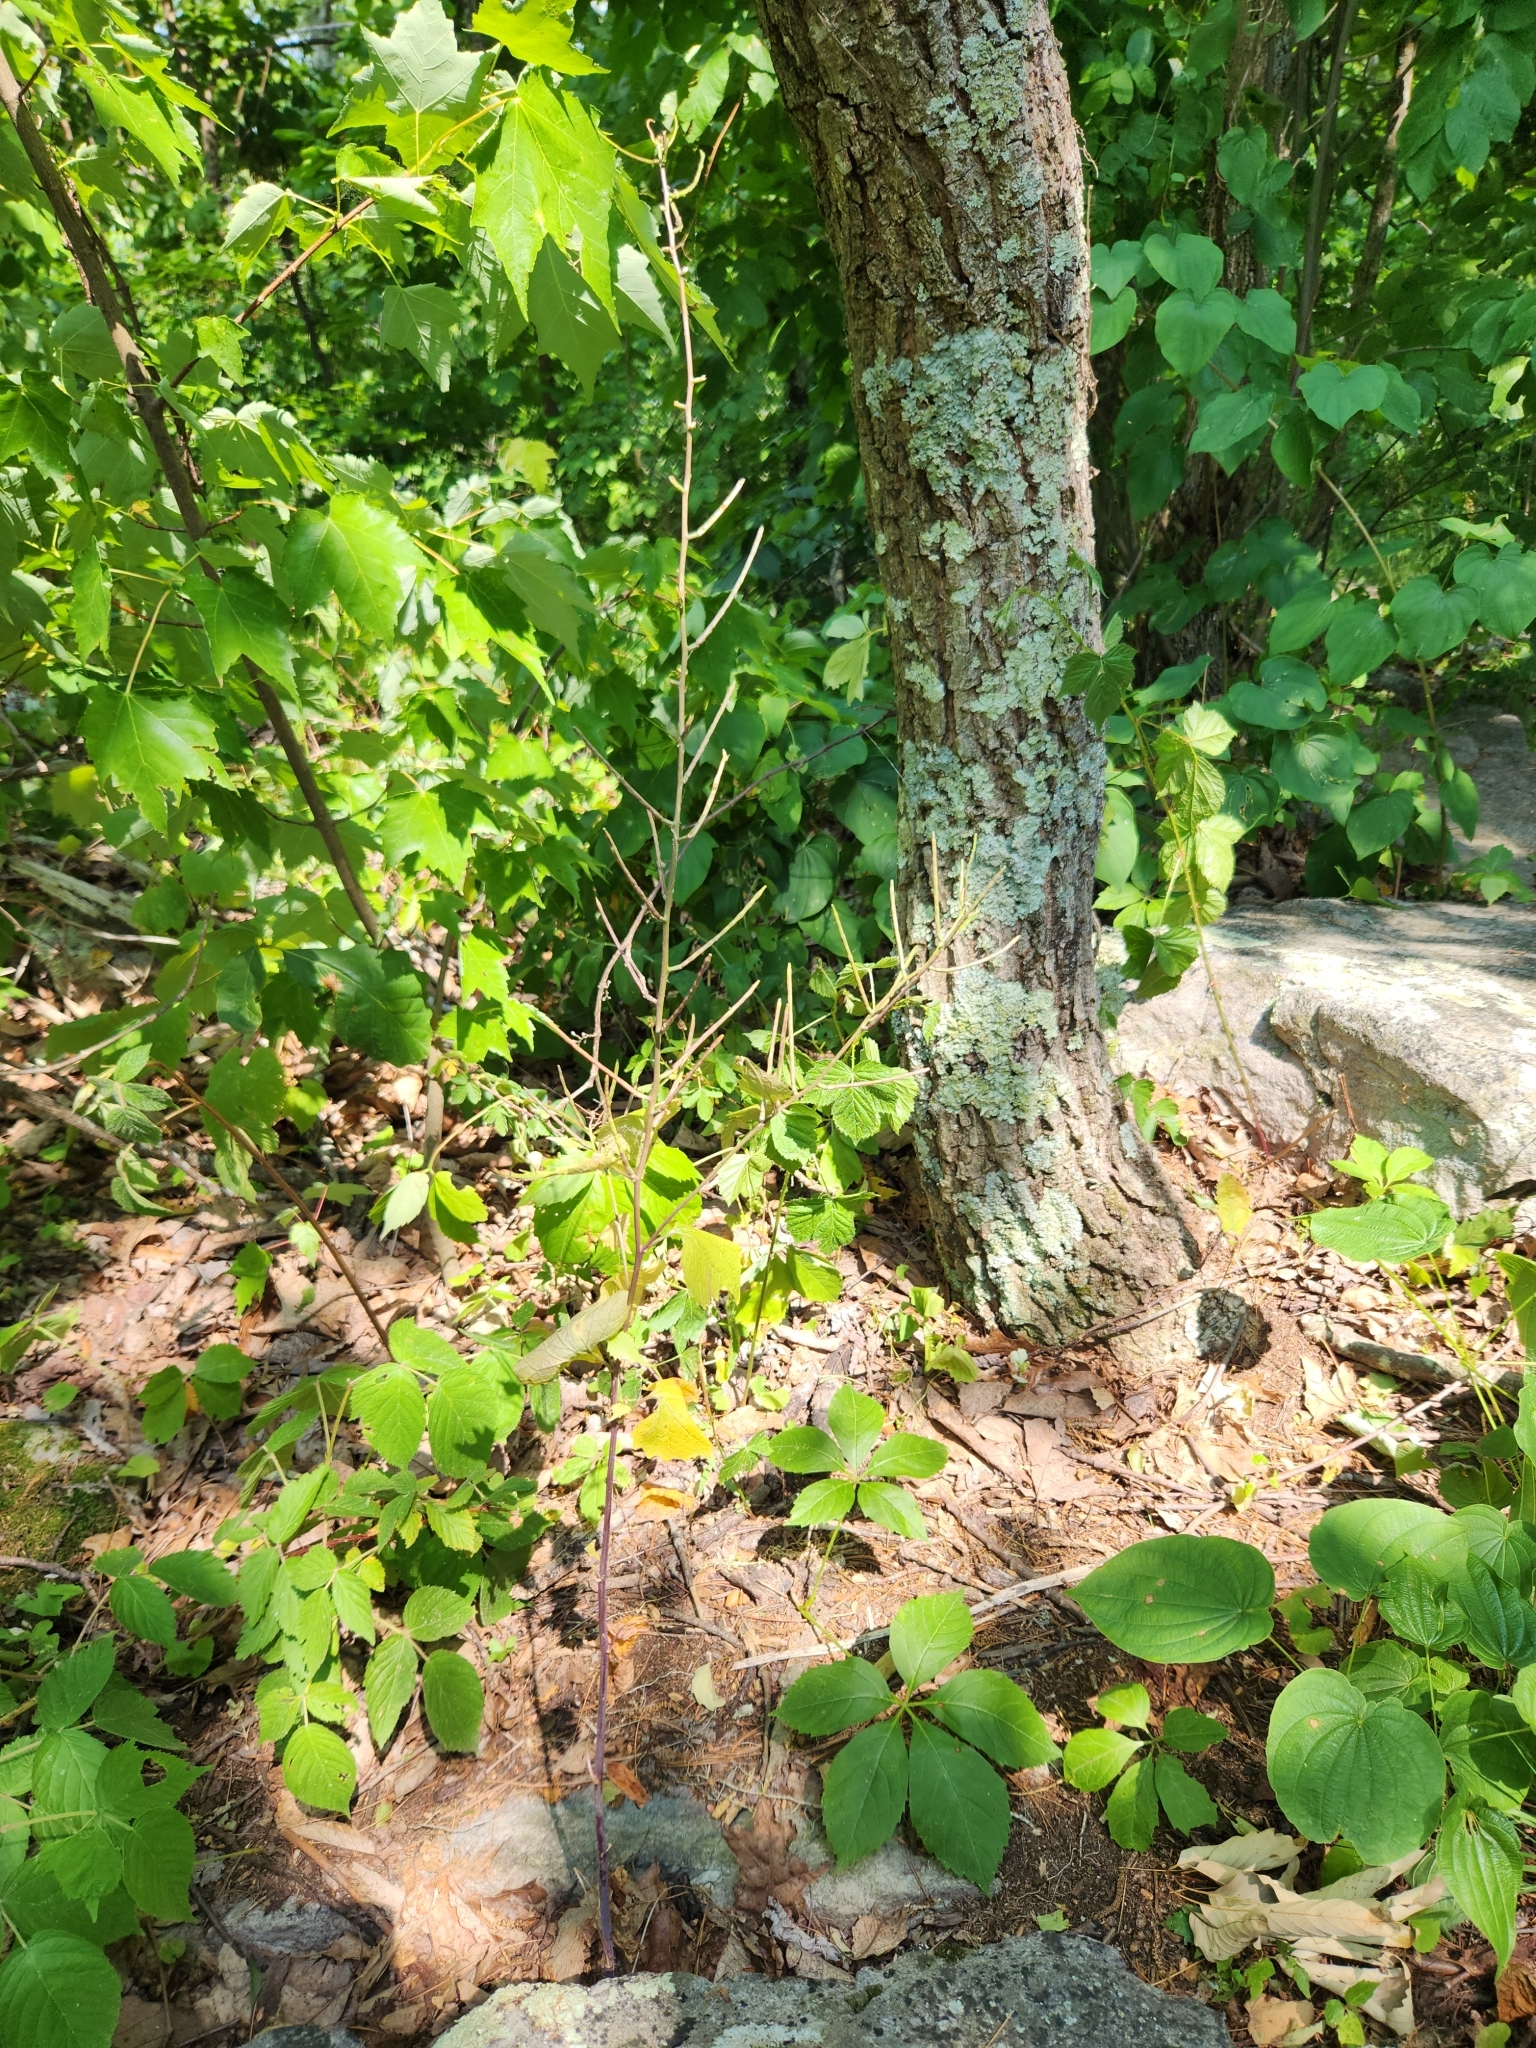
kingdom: Plantae
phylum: Tracheophyta
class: Magnoliopsida
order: Brassicales
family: Brassicaceae
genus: Alliaria
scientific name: Alliaria petiolata
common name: Garlic mustard
